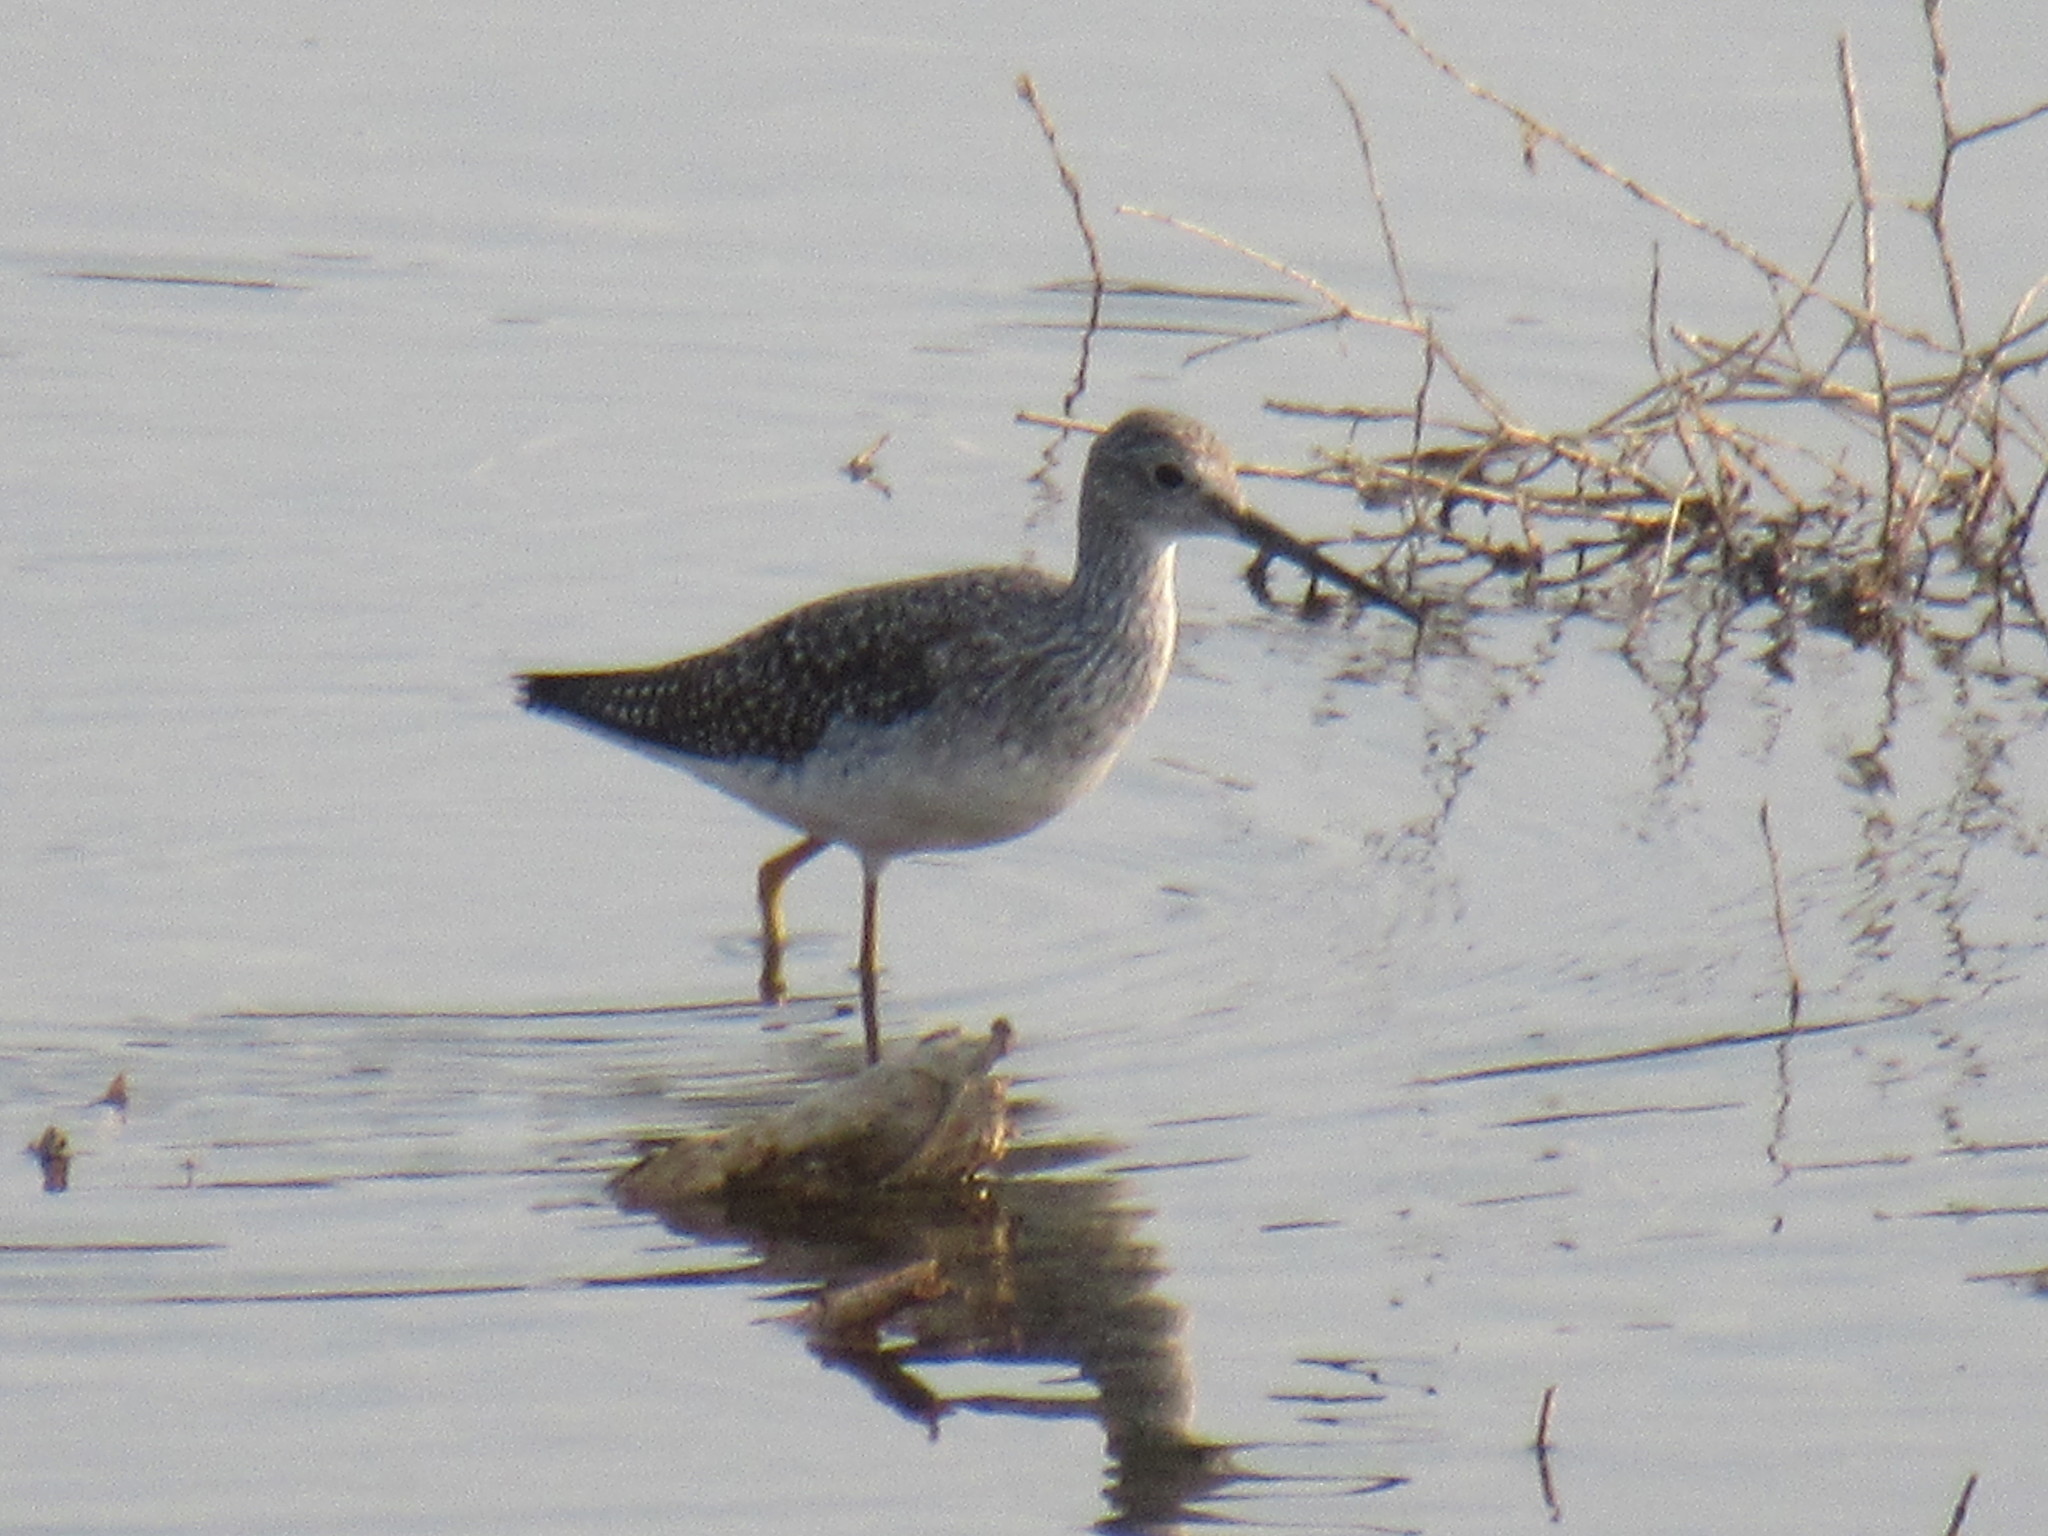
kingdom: Animalia
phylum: Chordata
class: Aves
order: Charadriiformes
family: Scolopacidae
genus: Tringa
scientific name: Tringa melanoleuca
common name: Greater yellowlegs
